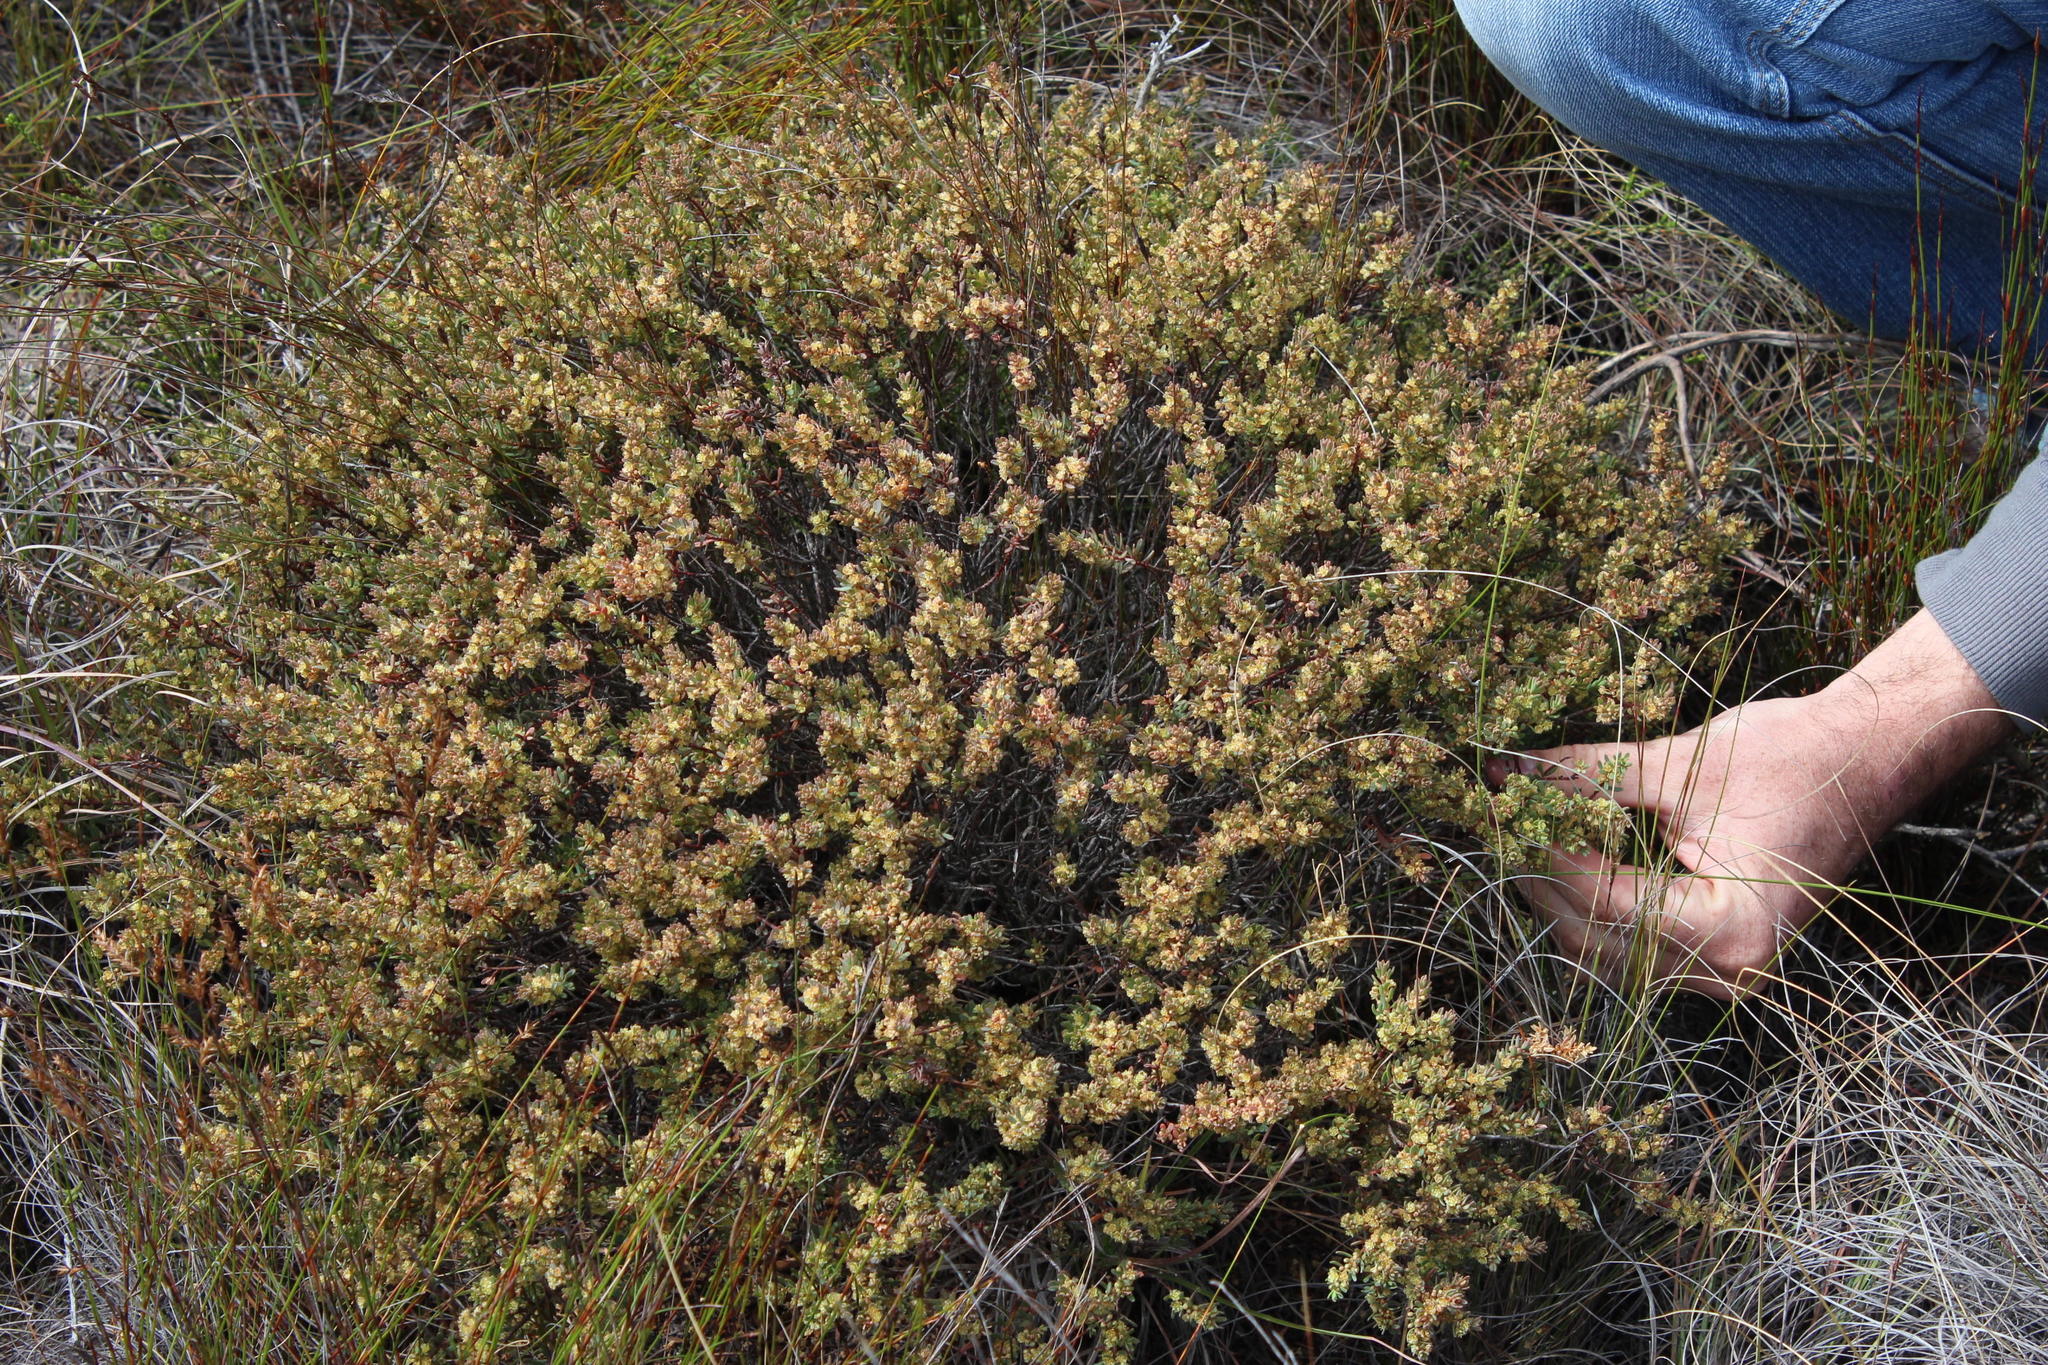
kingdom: Plantae
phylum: Tracheophyta
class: Magnoliopsida
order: Malpighiales
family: Peraceae
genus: Clutia
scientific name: Clutia laxa
